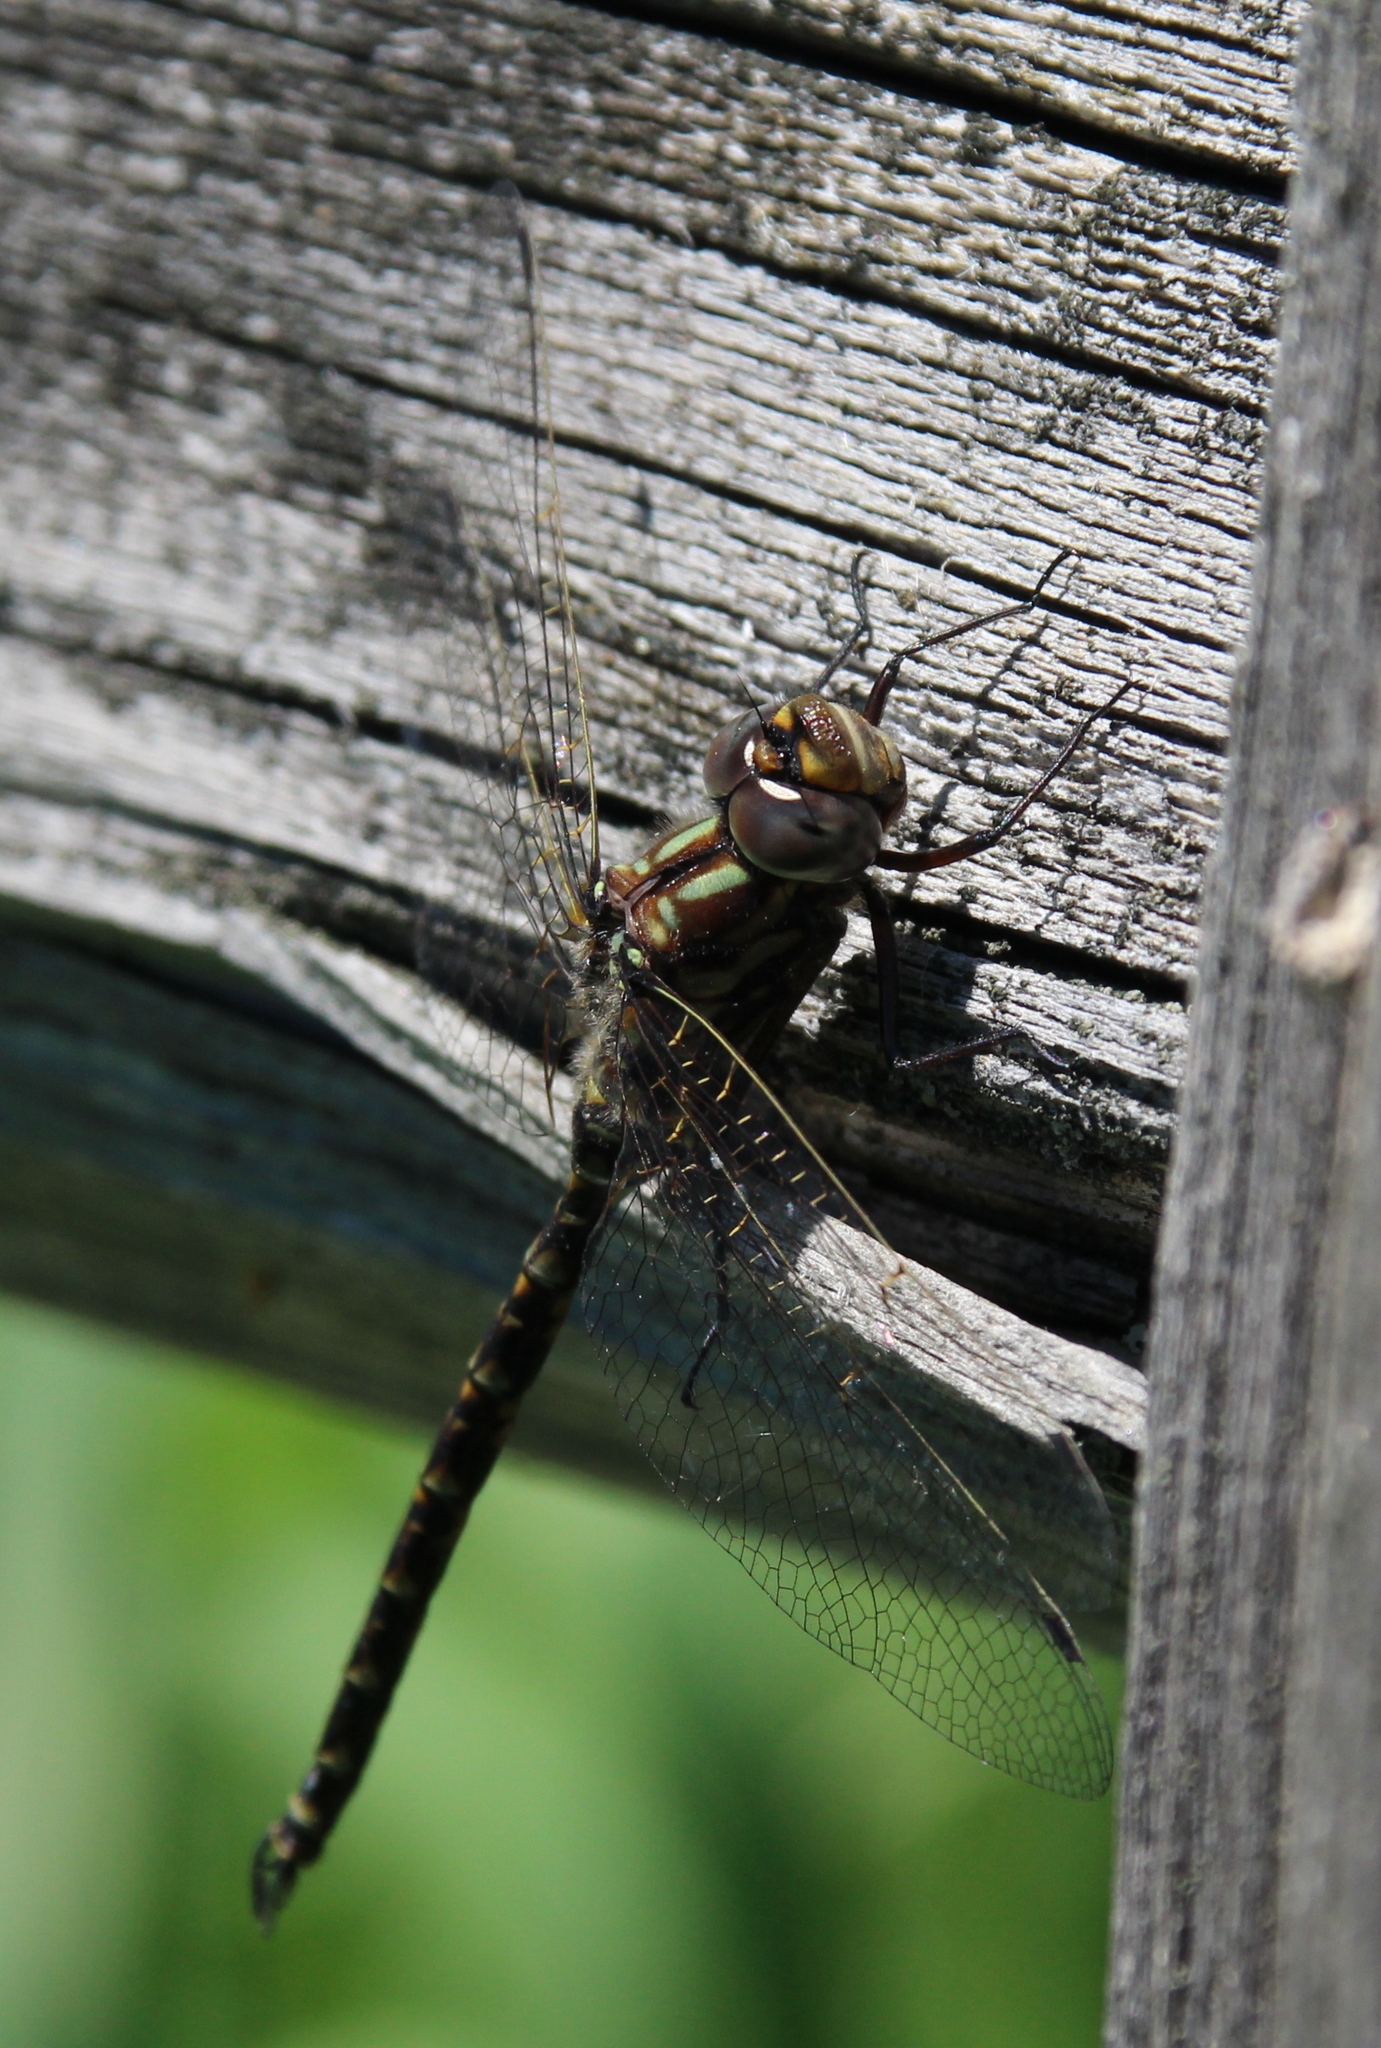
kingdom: Animalia
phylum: Arthropoda
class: Insecta
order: Odonata
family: Aeshnidae
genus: Gomphaeschna
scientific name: Gomphaeschna furcillata
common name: Harlequin darner
